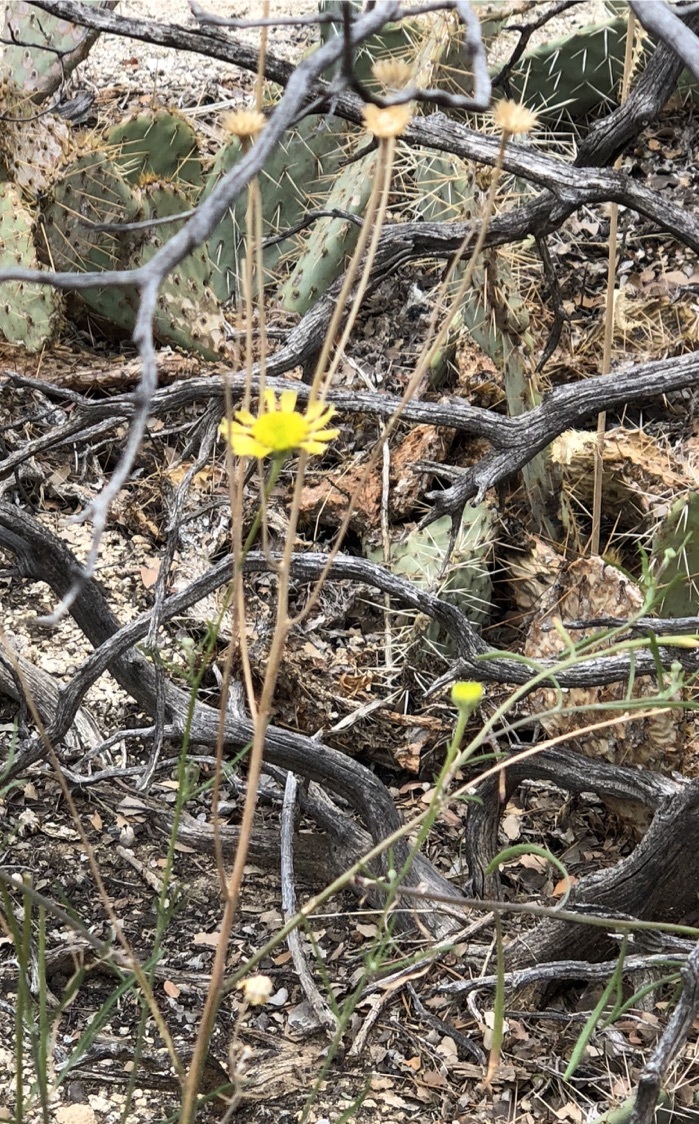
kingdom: Plantae
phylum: Tracheophyta
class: Magnoliopsida
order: Asterales
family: Asteraceae
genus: Hymenoxys
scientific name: Hymenoxys cooperi
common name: Cooper's bitterweed
